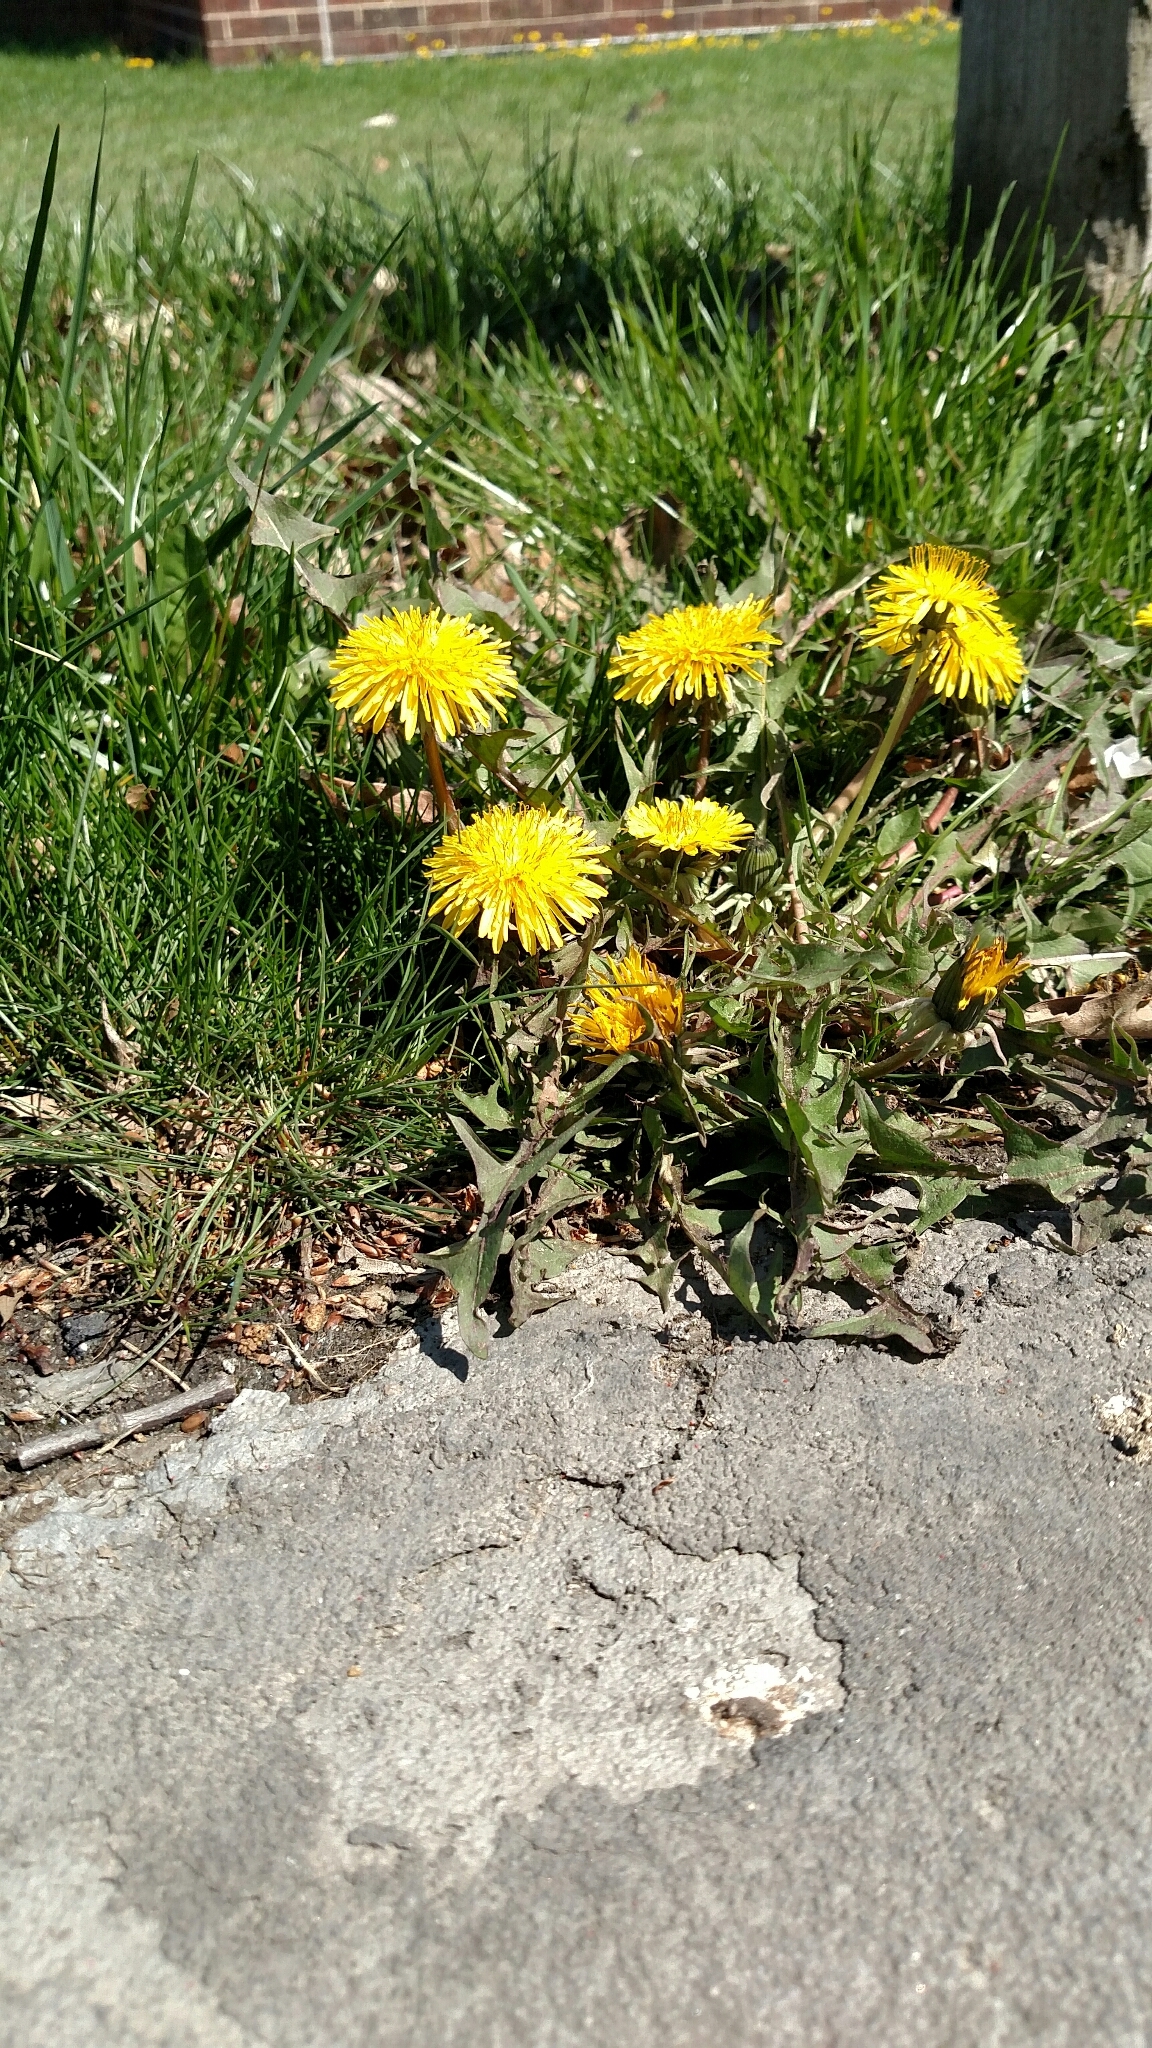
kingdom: Plantae
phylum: Tracheophyta
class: Magnoliopsida
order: Asterales
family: Asteraceae
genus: Taraxacum
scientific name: Taraxacum officinale
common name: Common dandelion
